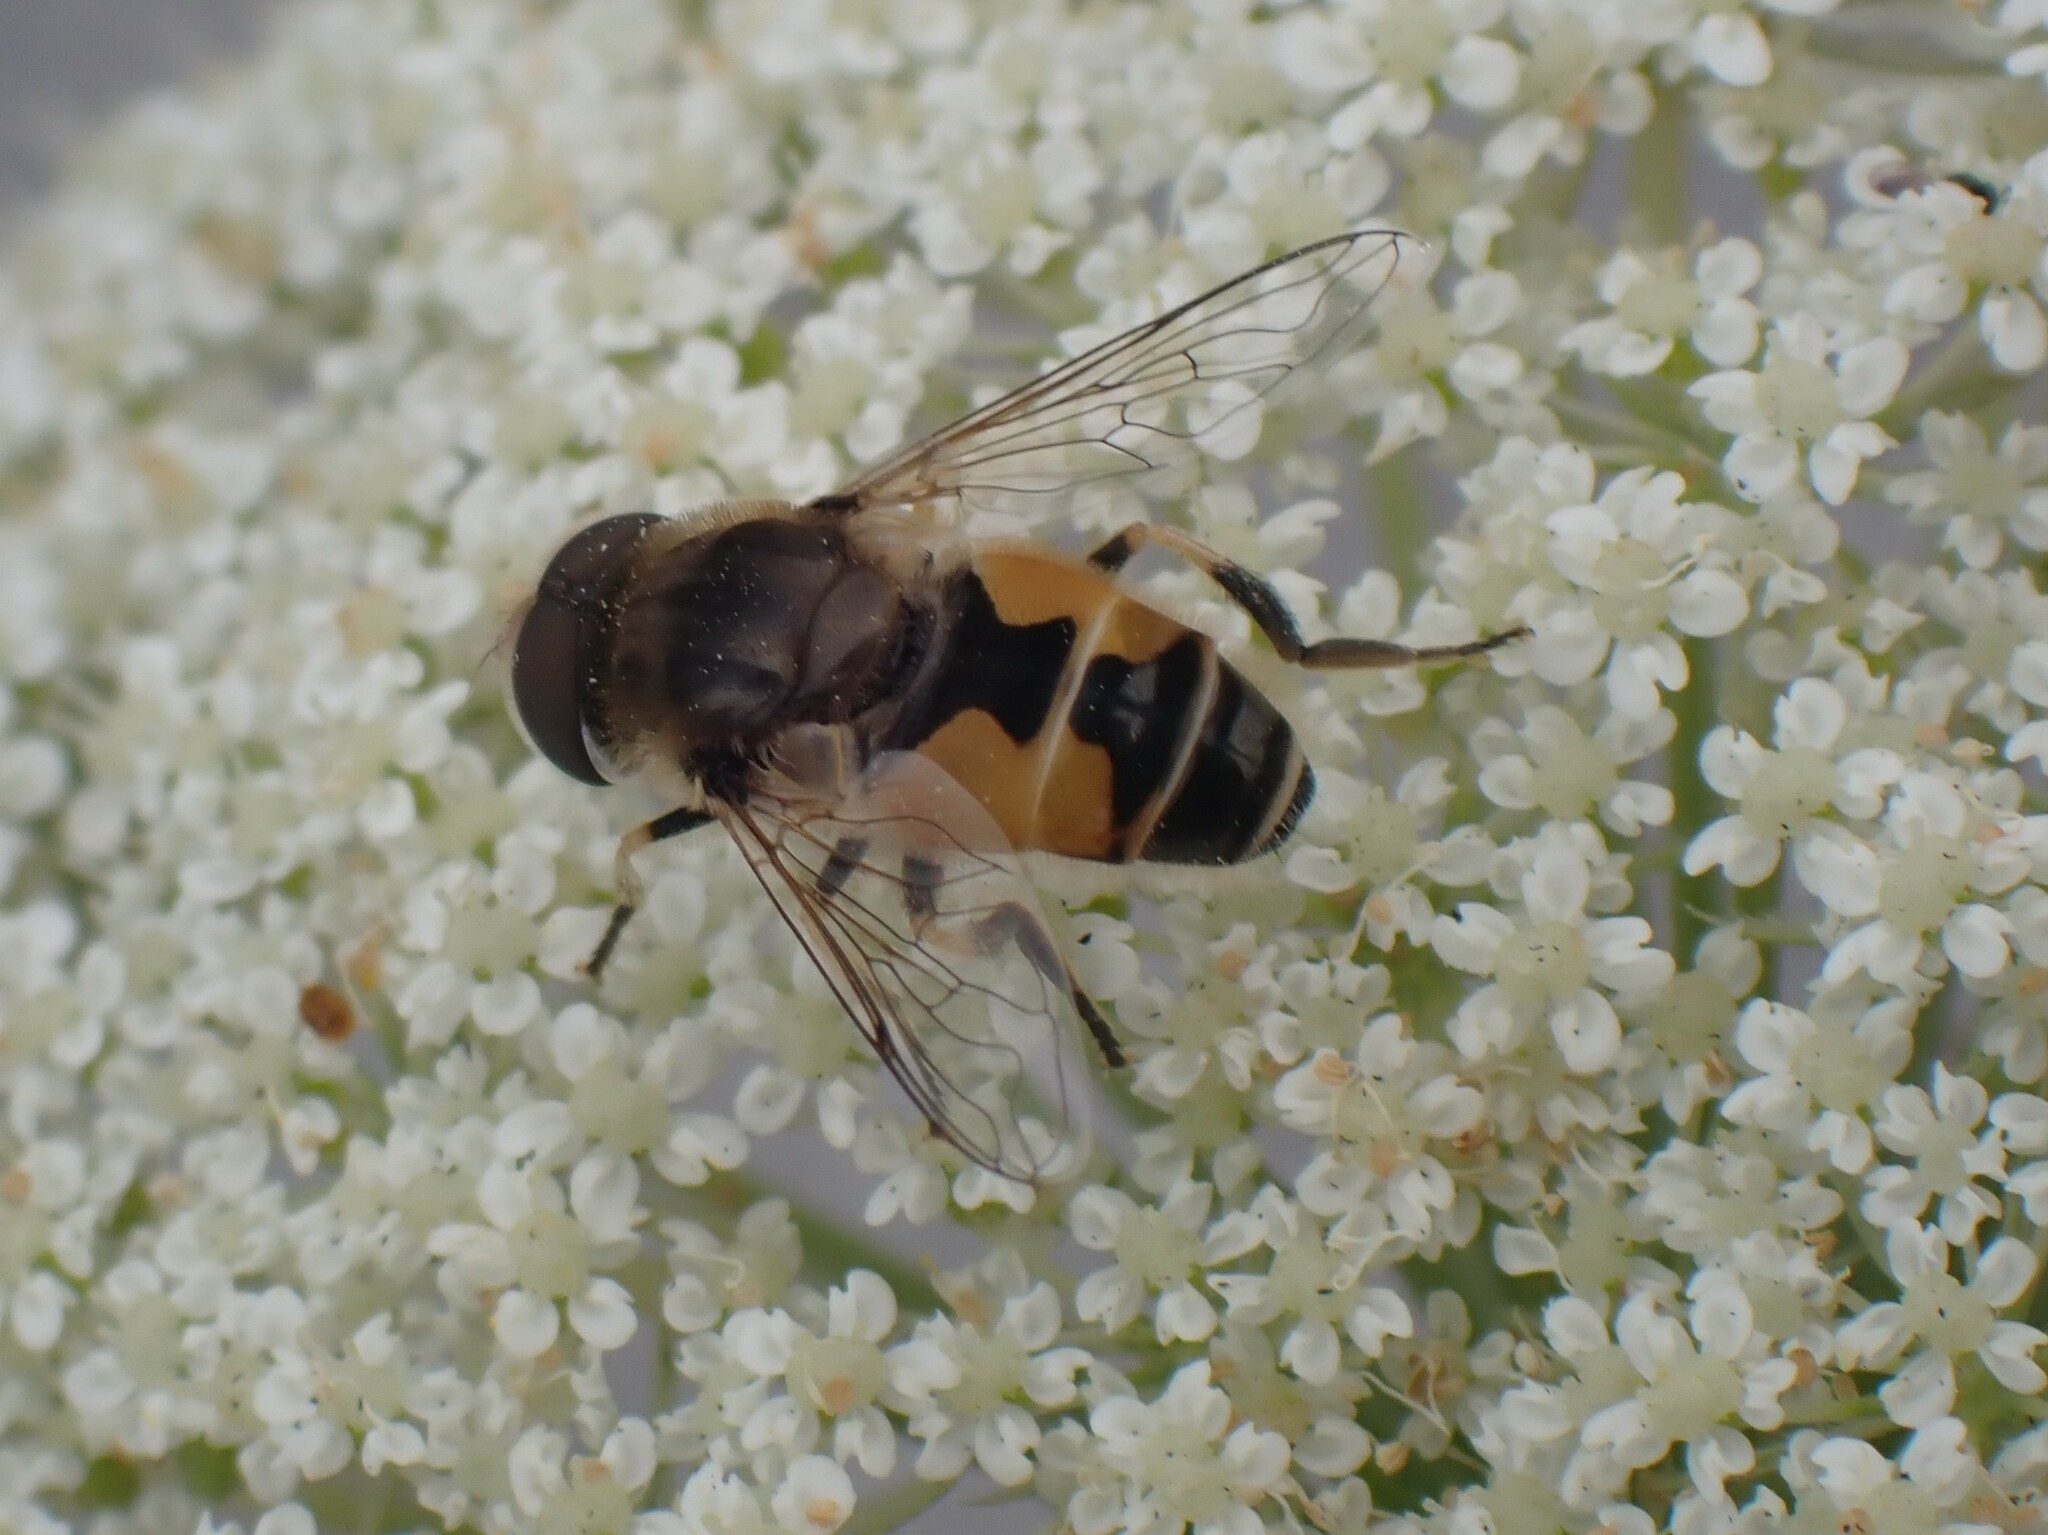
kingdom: Animalia
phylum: Arthropoda
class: Insecta
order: Diptera
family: Syrphidae
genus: Eristalis
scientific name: Eristalis arbustorum
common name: Hover fly
